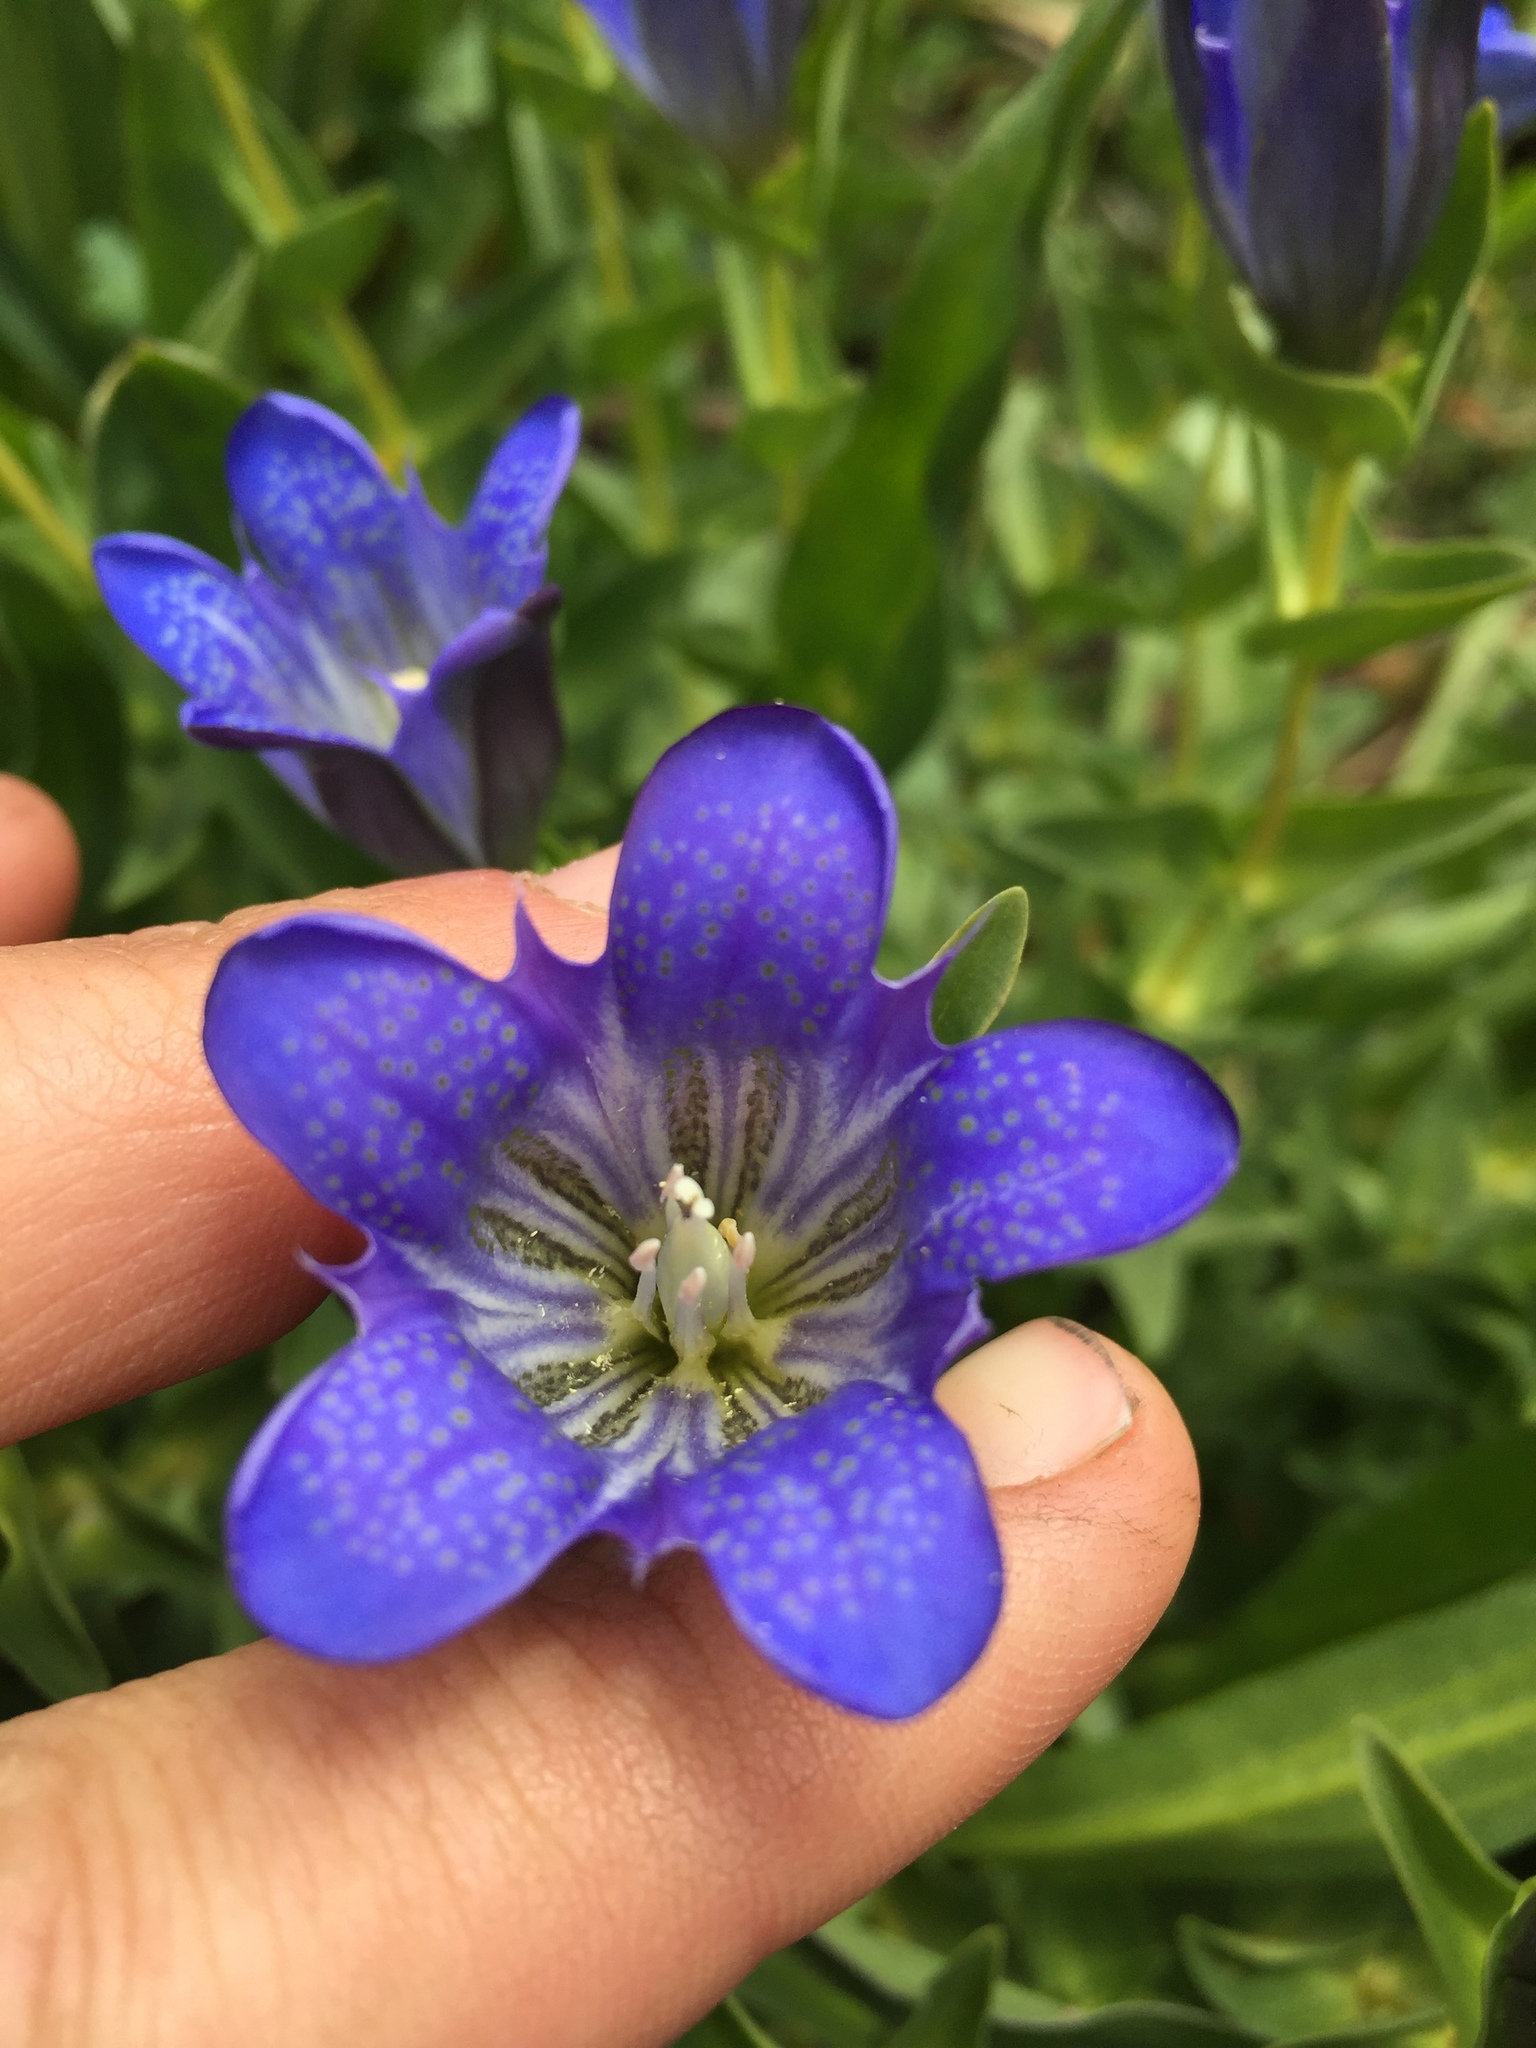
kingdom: Plantae
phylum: Tracheophyta
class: Magnoliopsida
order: Gentianales
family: Gentianaceae
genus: Gentiana
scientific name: Gentiana calycosa
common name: Rainier pleated gentian
